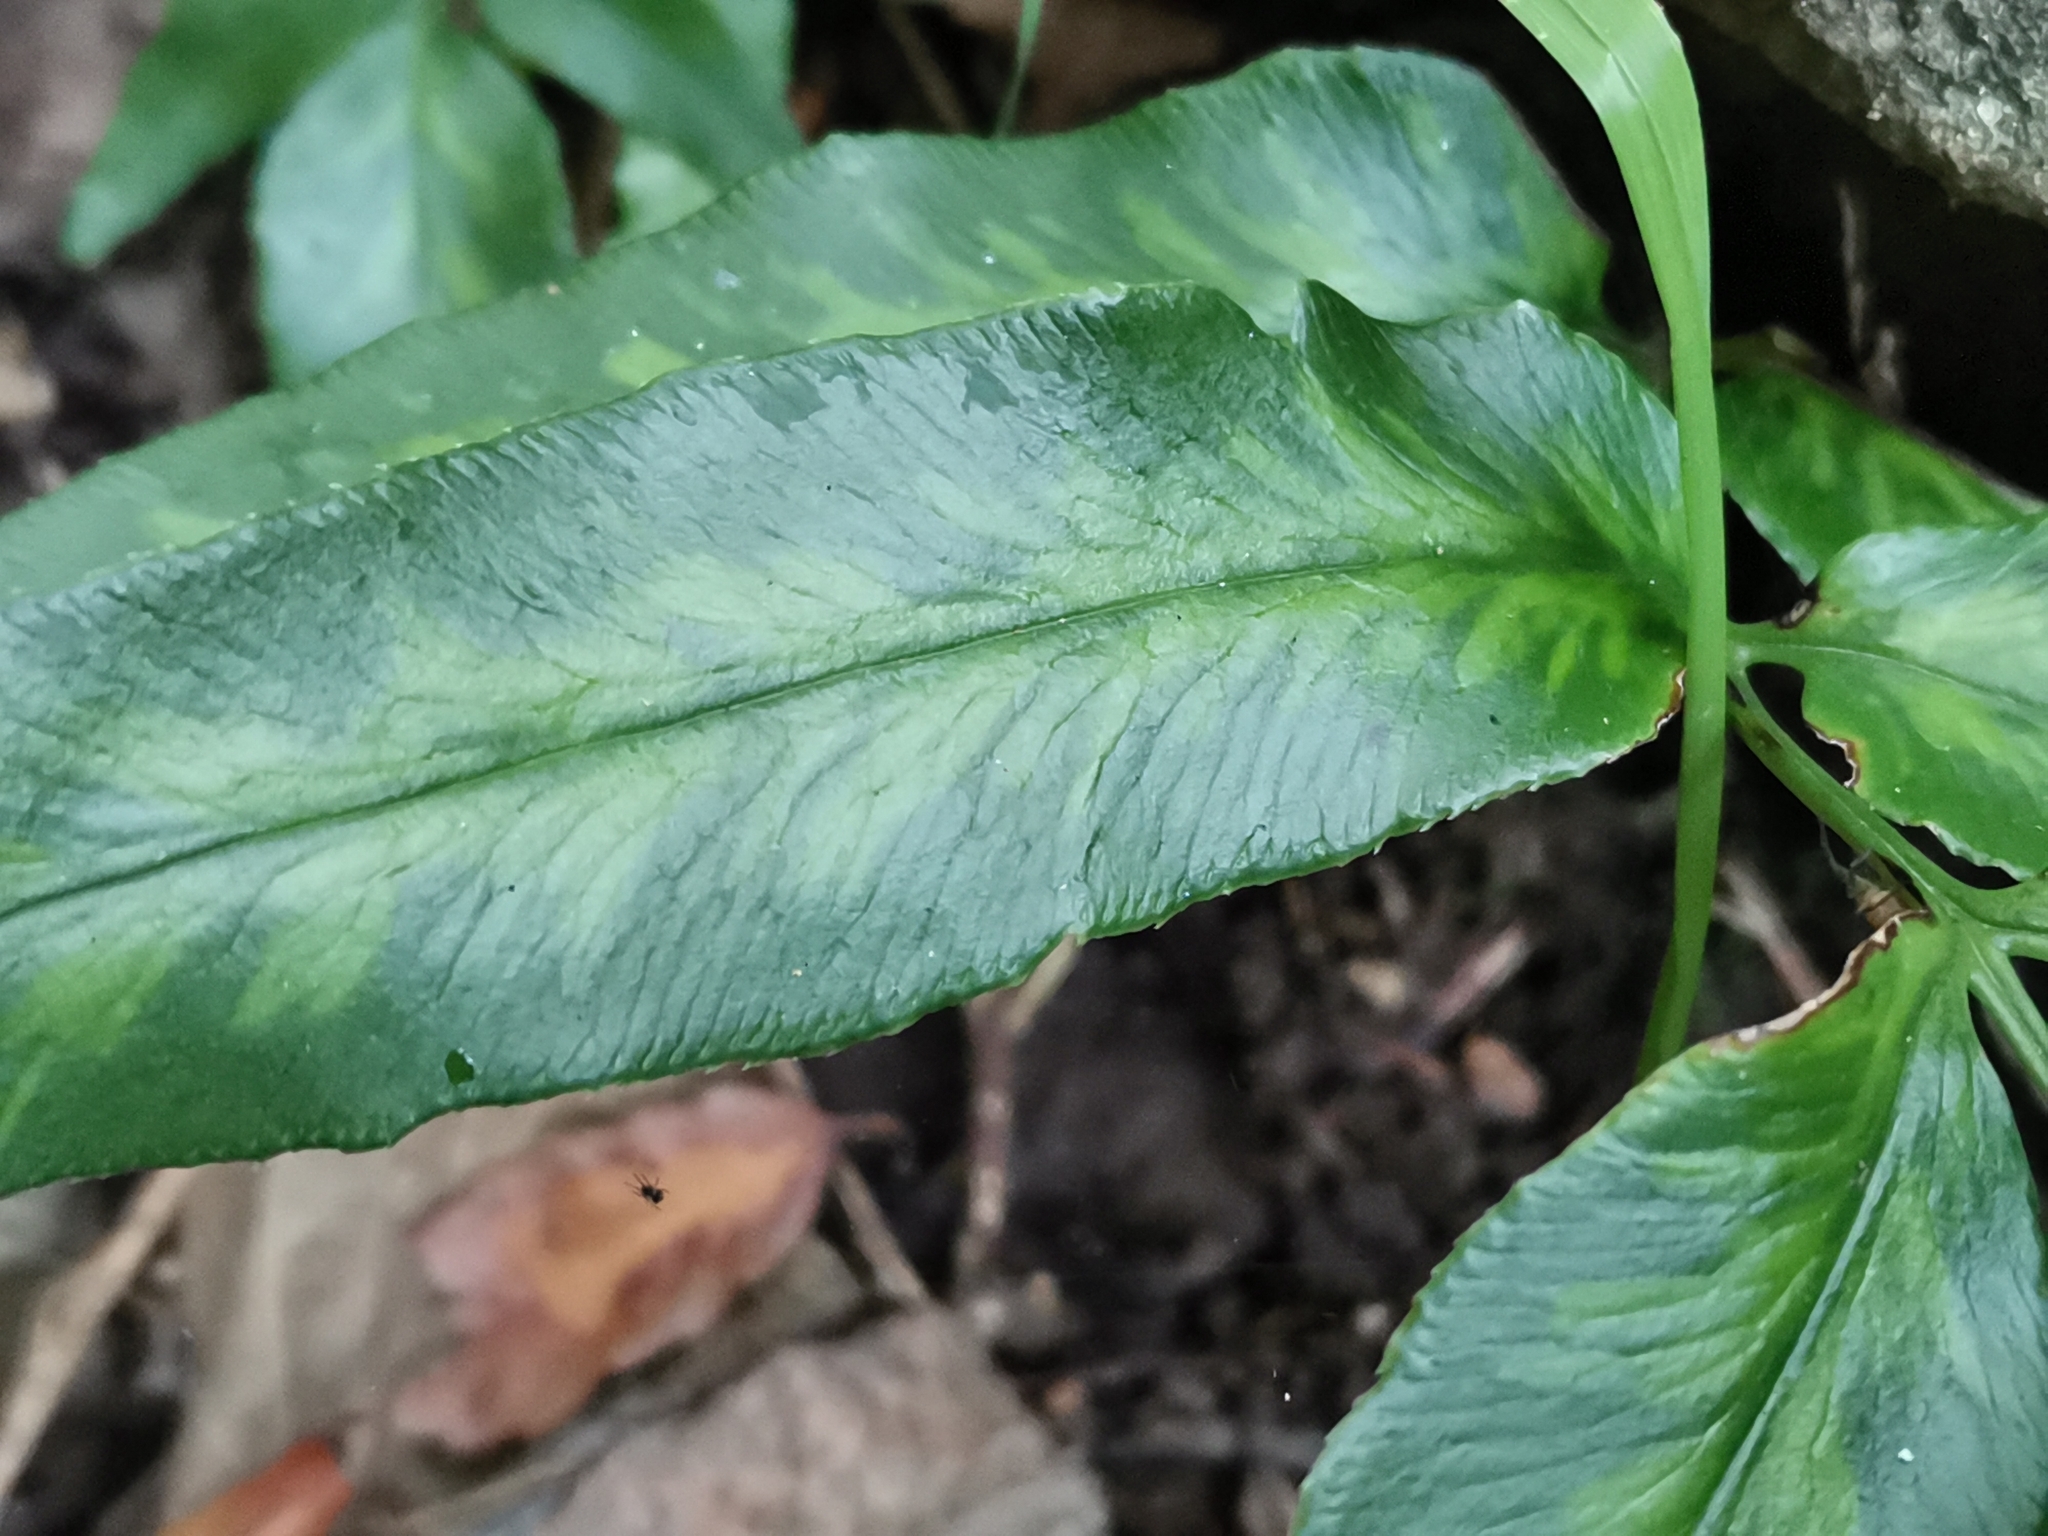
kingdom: Plantae
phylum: Tracheophyta
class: Polypodiopsida
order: Polypodiales
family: Pteridaceae
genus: Coniogramme
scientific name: Coniogramme japonica
